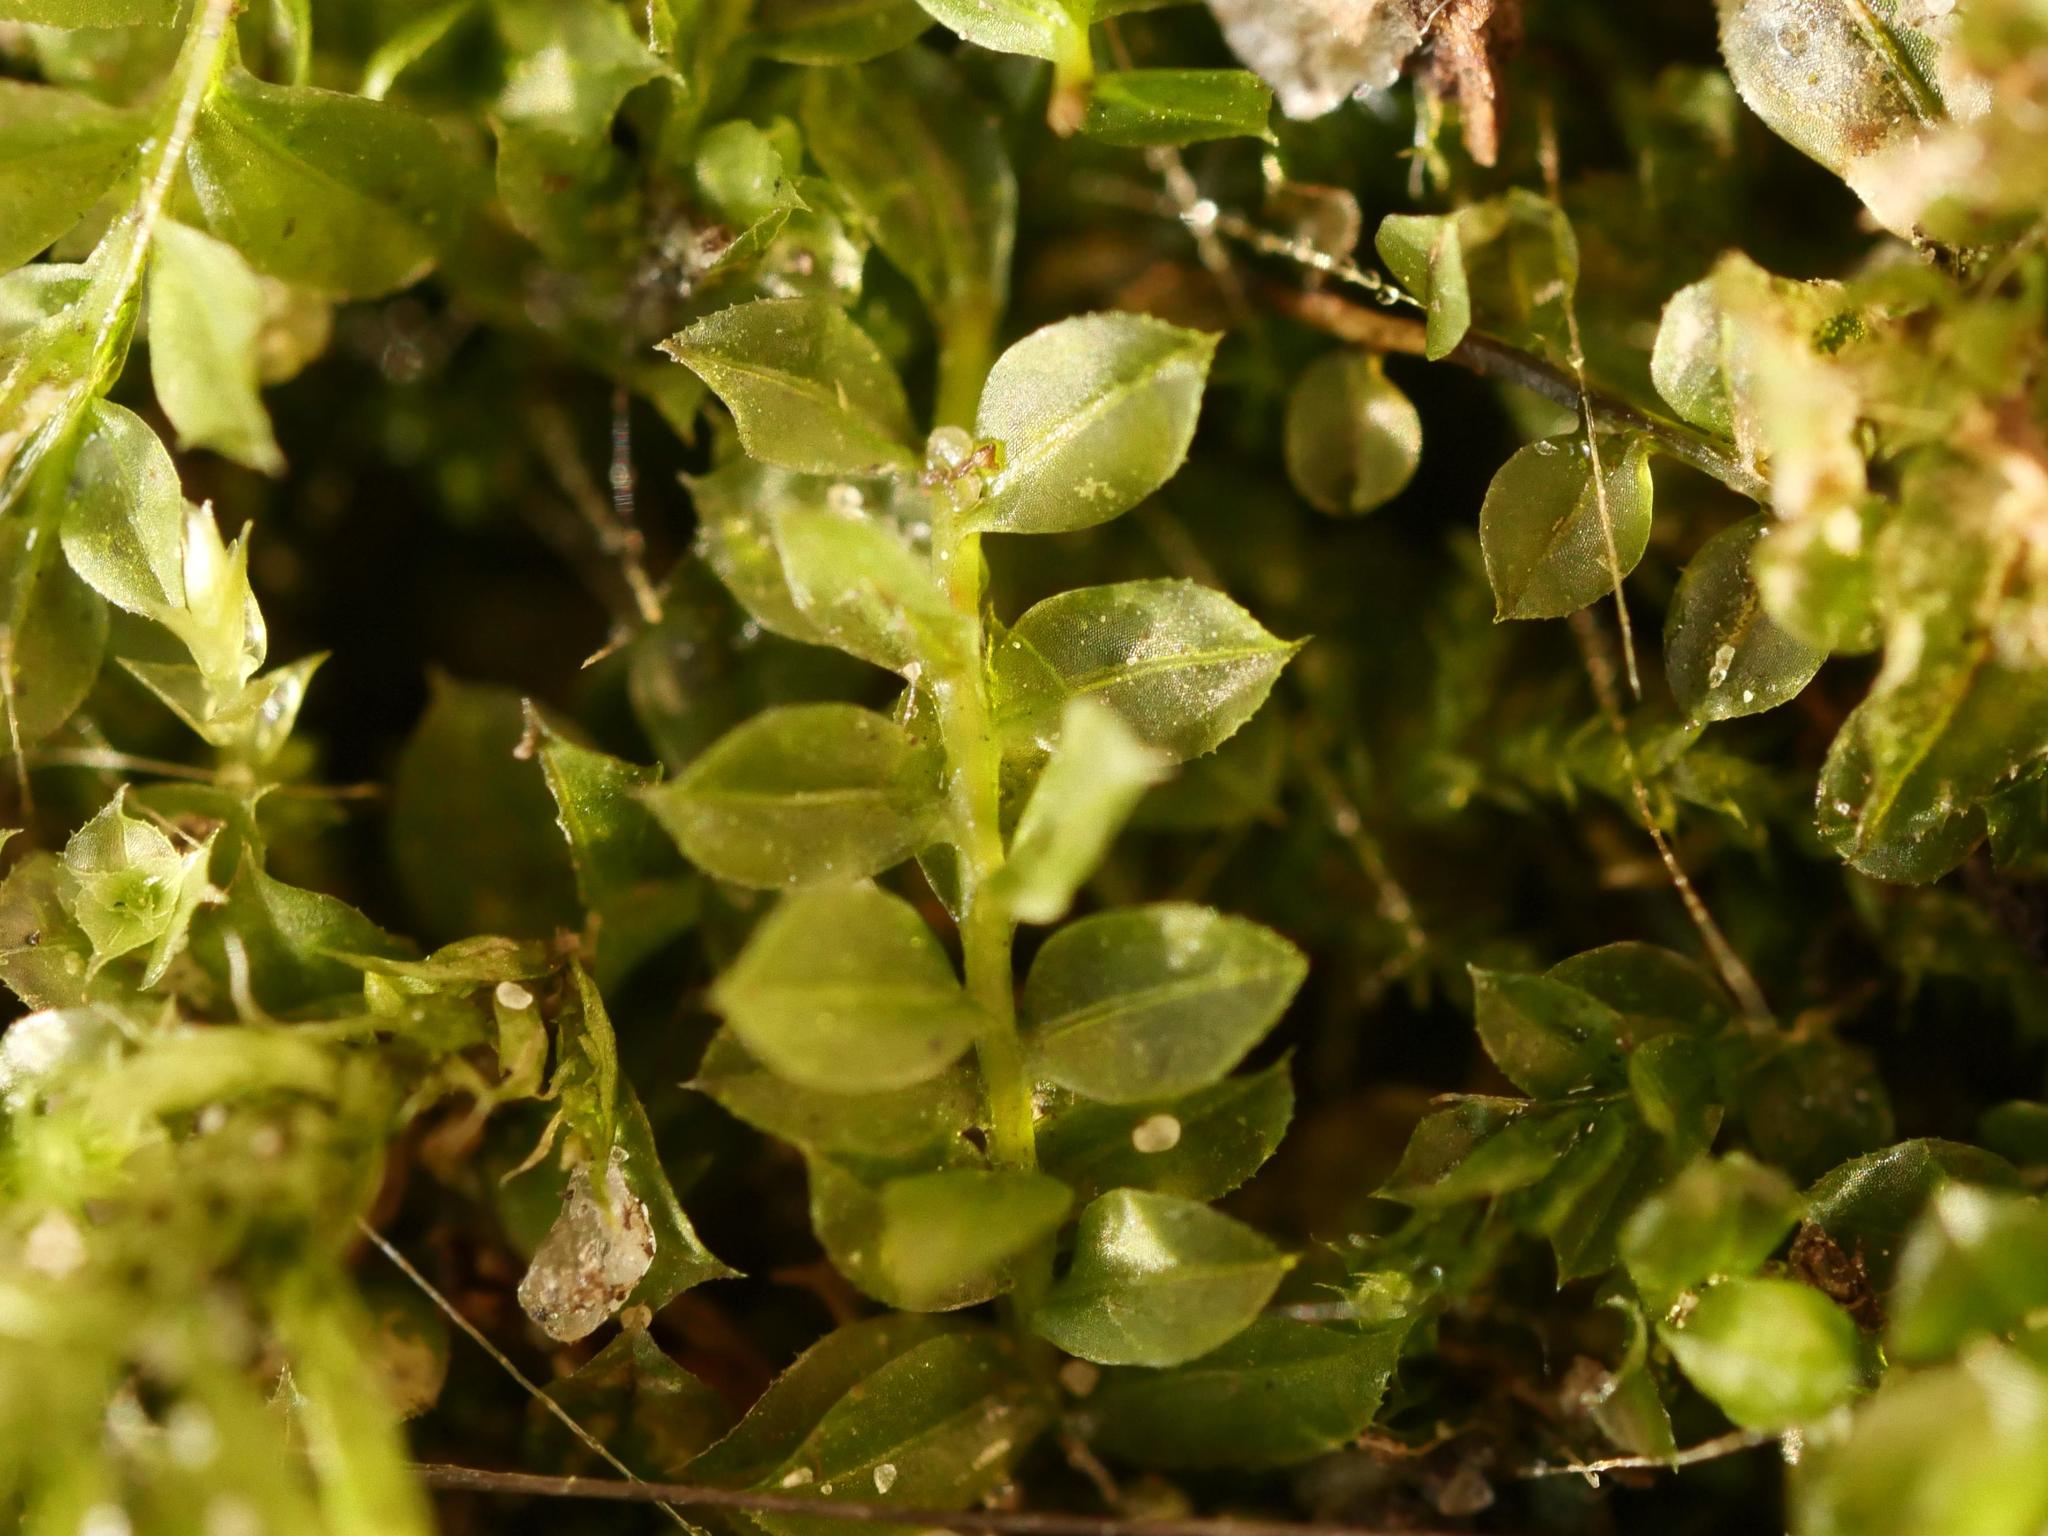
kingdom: Plantae
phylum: Bryophyta
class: Bryopsida
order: Bryales
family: Mniaceae
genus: Plagiomnium
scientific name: Plagiomnium cuspidatum
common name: Woodsy leafy moss
